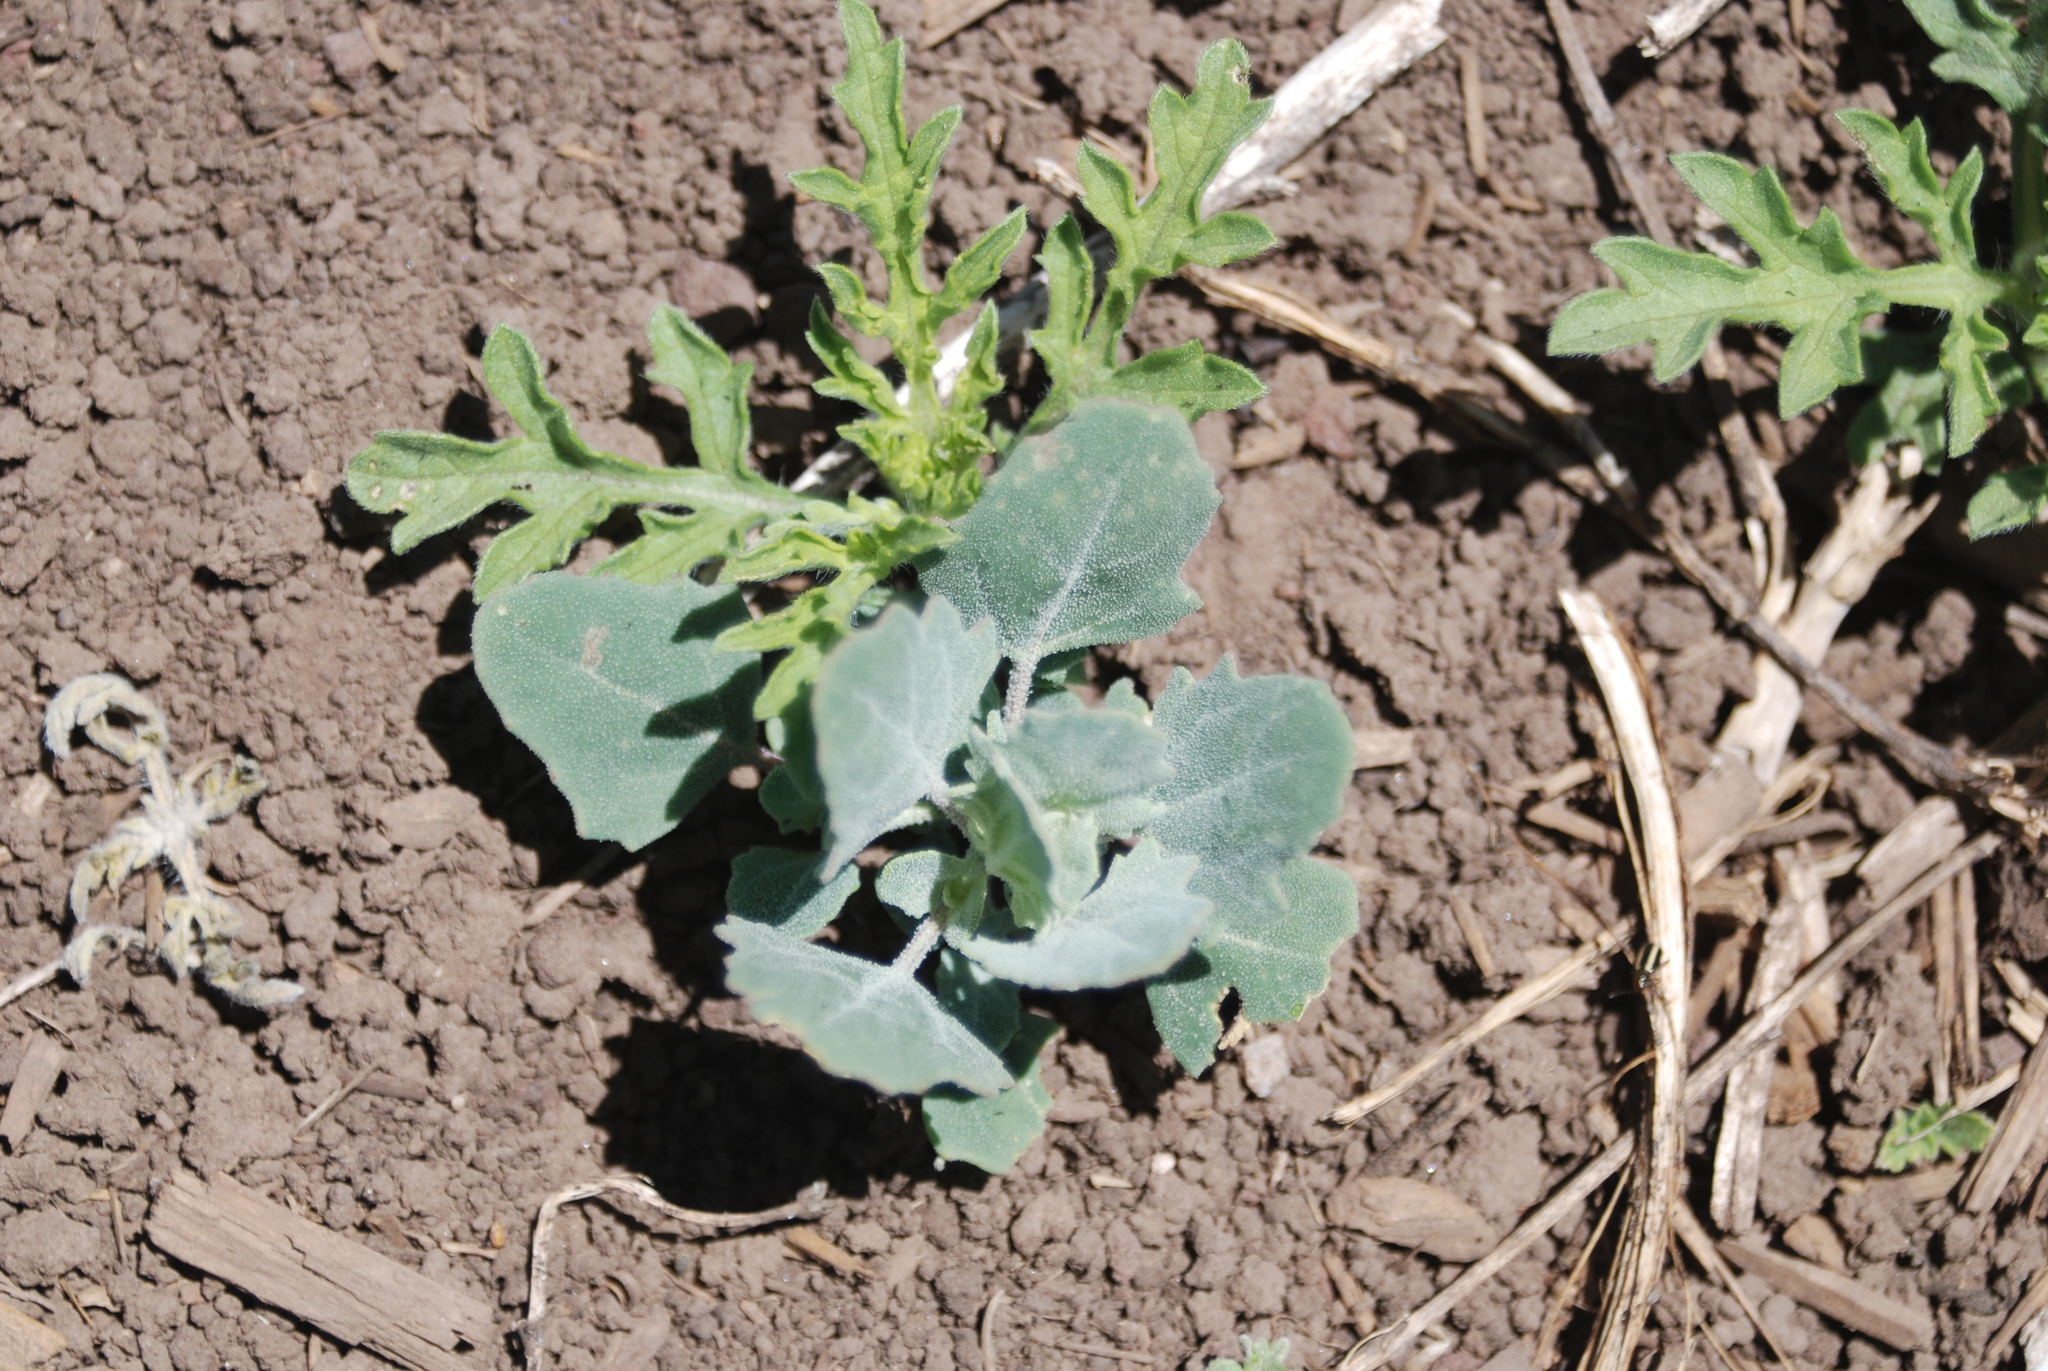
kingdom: Plantae
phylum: Tracheophyta
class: Magnoliopsida
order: Caryophyllales
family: Amaranthaceae
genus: Chenopodium
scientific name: Chenopodium album
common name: Fat-hen
